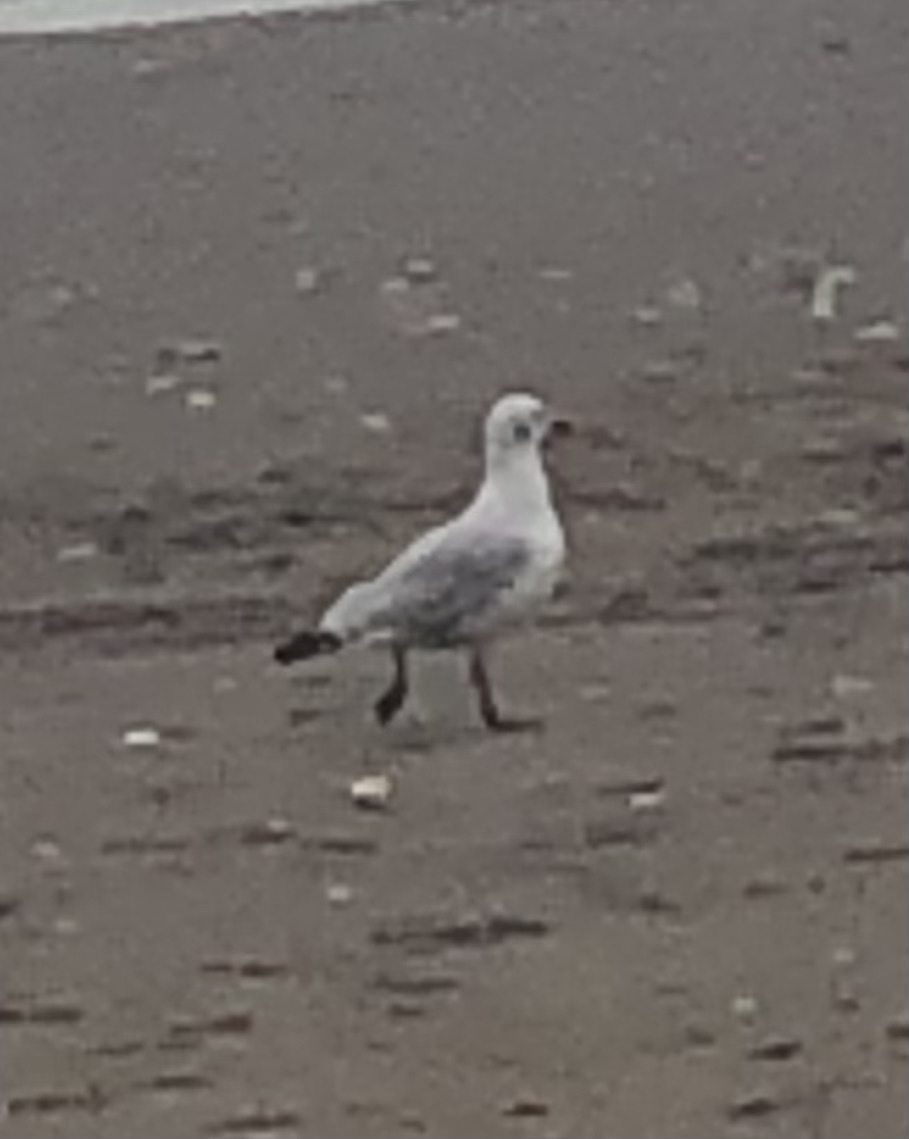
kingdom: Animalia
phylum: Chordata
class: Aves
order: Charadriiformes
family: Laridae
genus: Chroicocephalus
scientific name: Chroicocephalus maculipennis
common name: Brown-hooded gull
